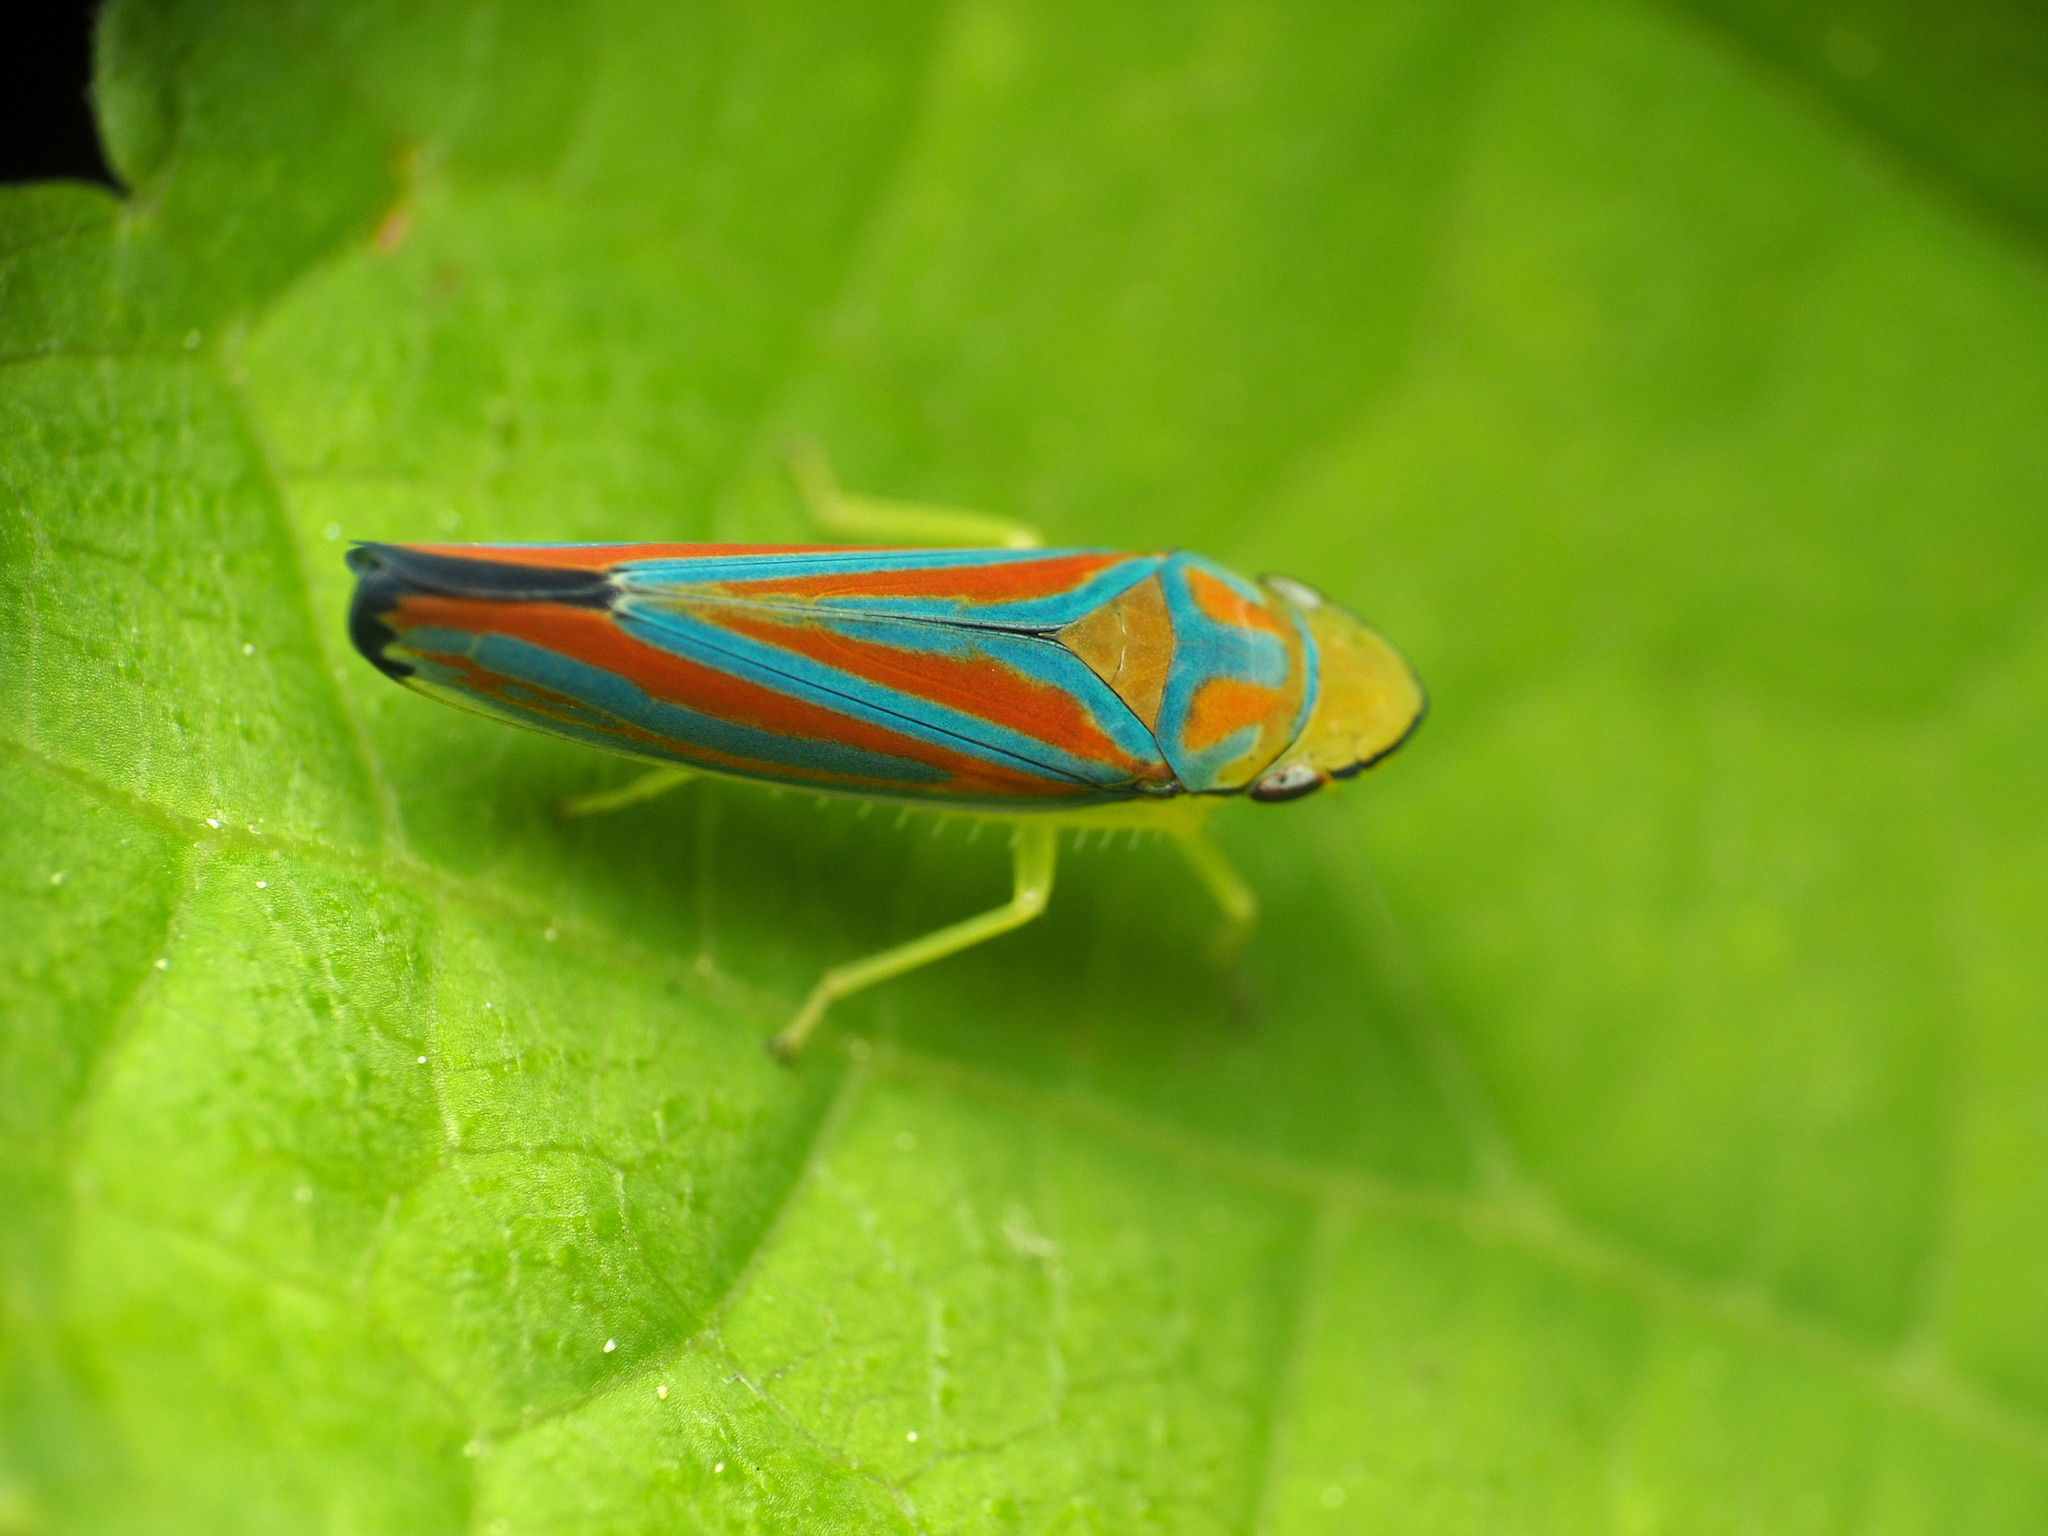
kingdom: Animalia
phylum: Arthropoda
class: Insecta
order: Hemiptera
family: Cicadellidae
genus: Graphocephala
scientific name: Graphocephala coccinea
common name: Candy-striped leafhopper
